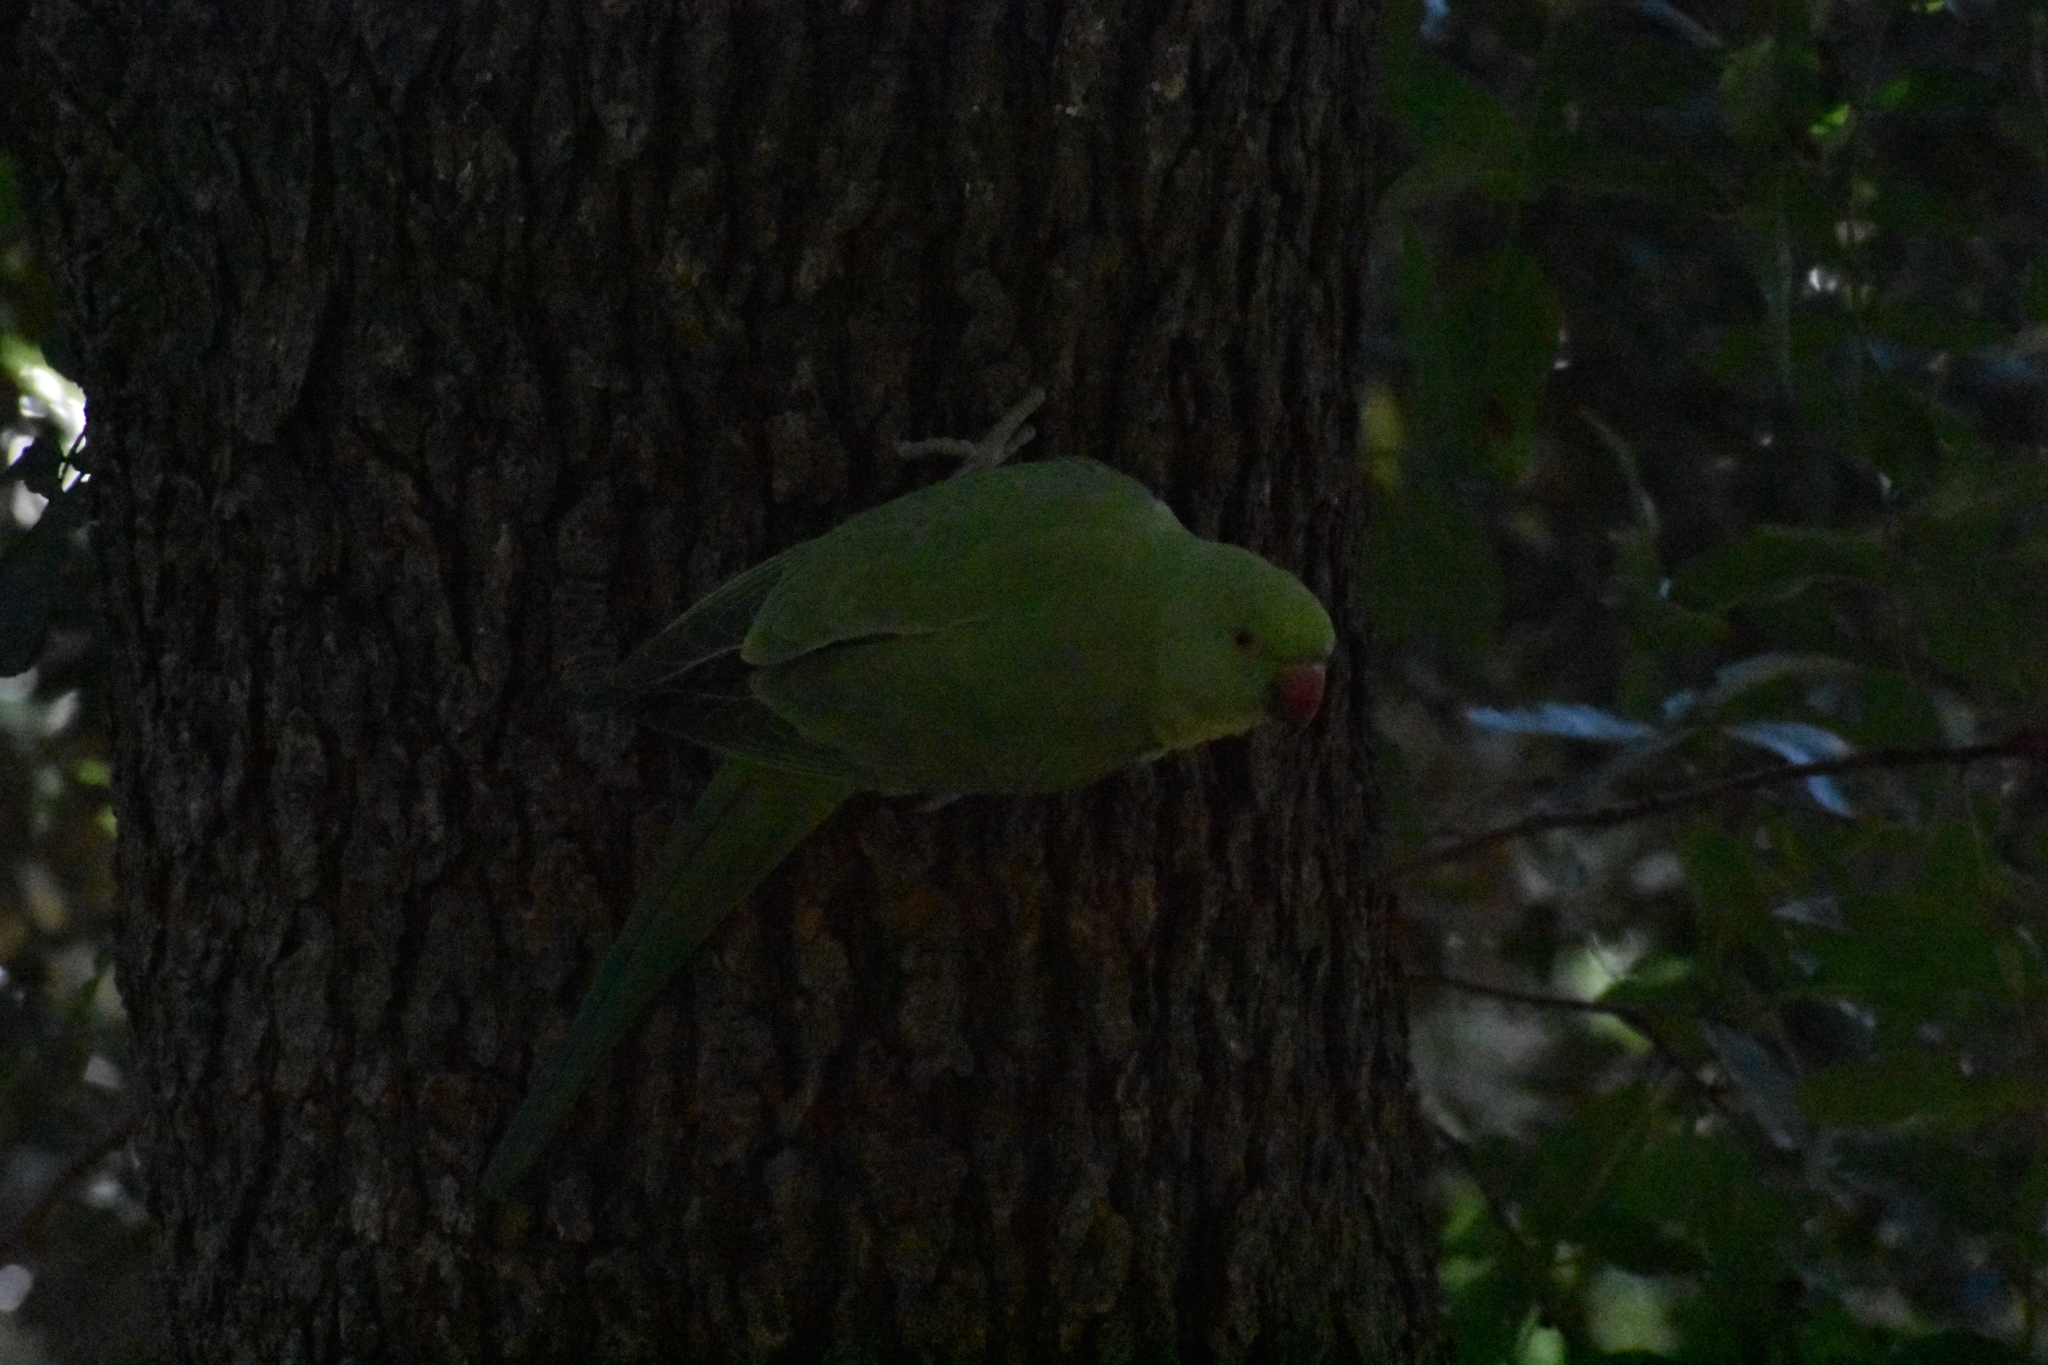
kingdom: Animalia
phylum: Chordata
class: Aves
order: Psittaciformes
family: Psittacidae
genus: Psittacula
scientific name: Psittacula krameri
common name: Rose-ringed parakeet
